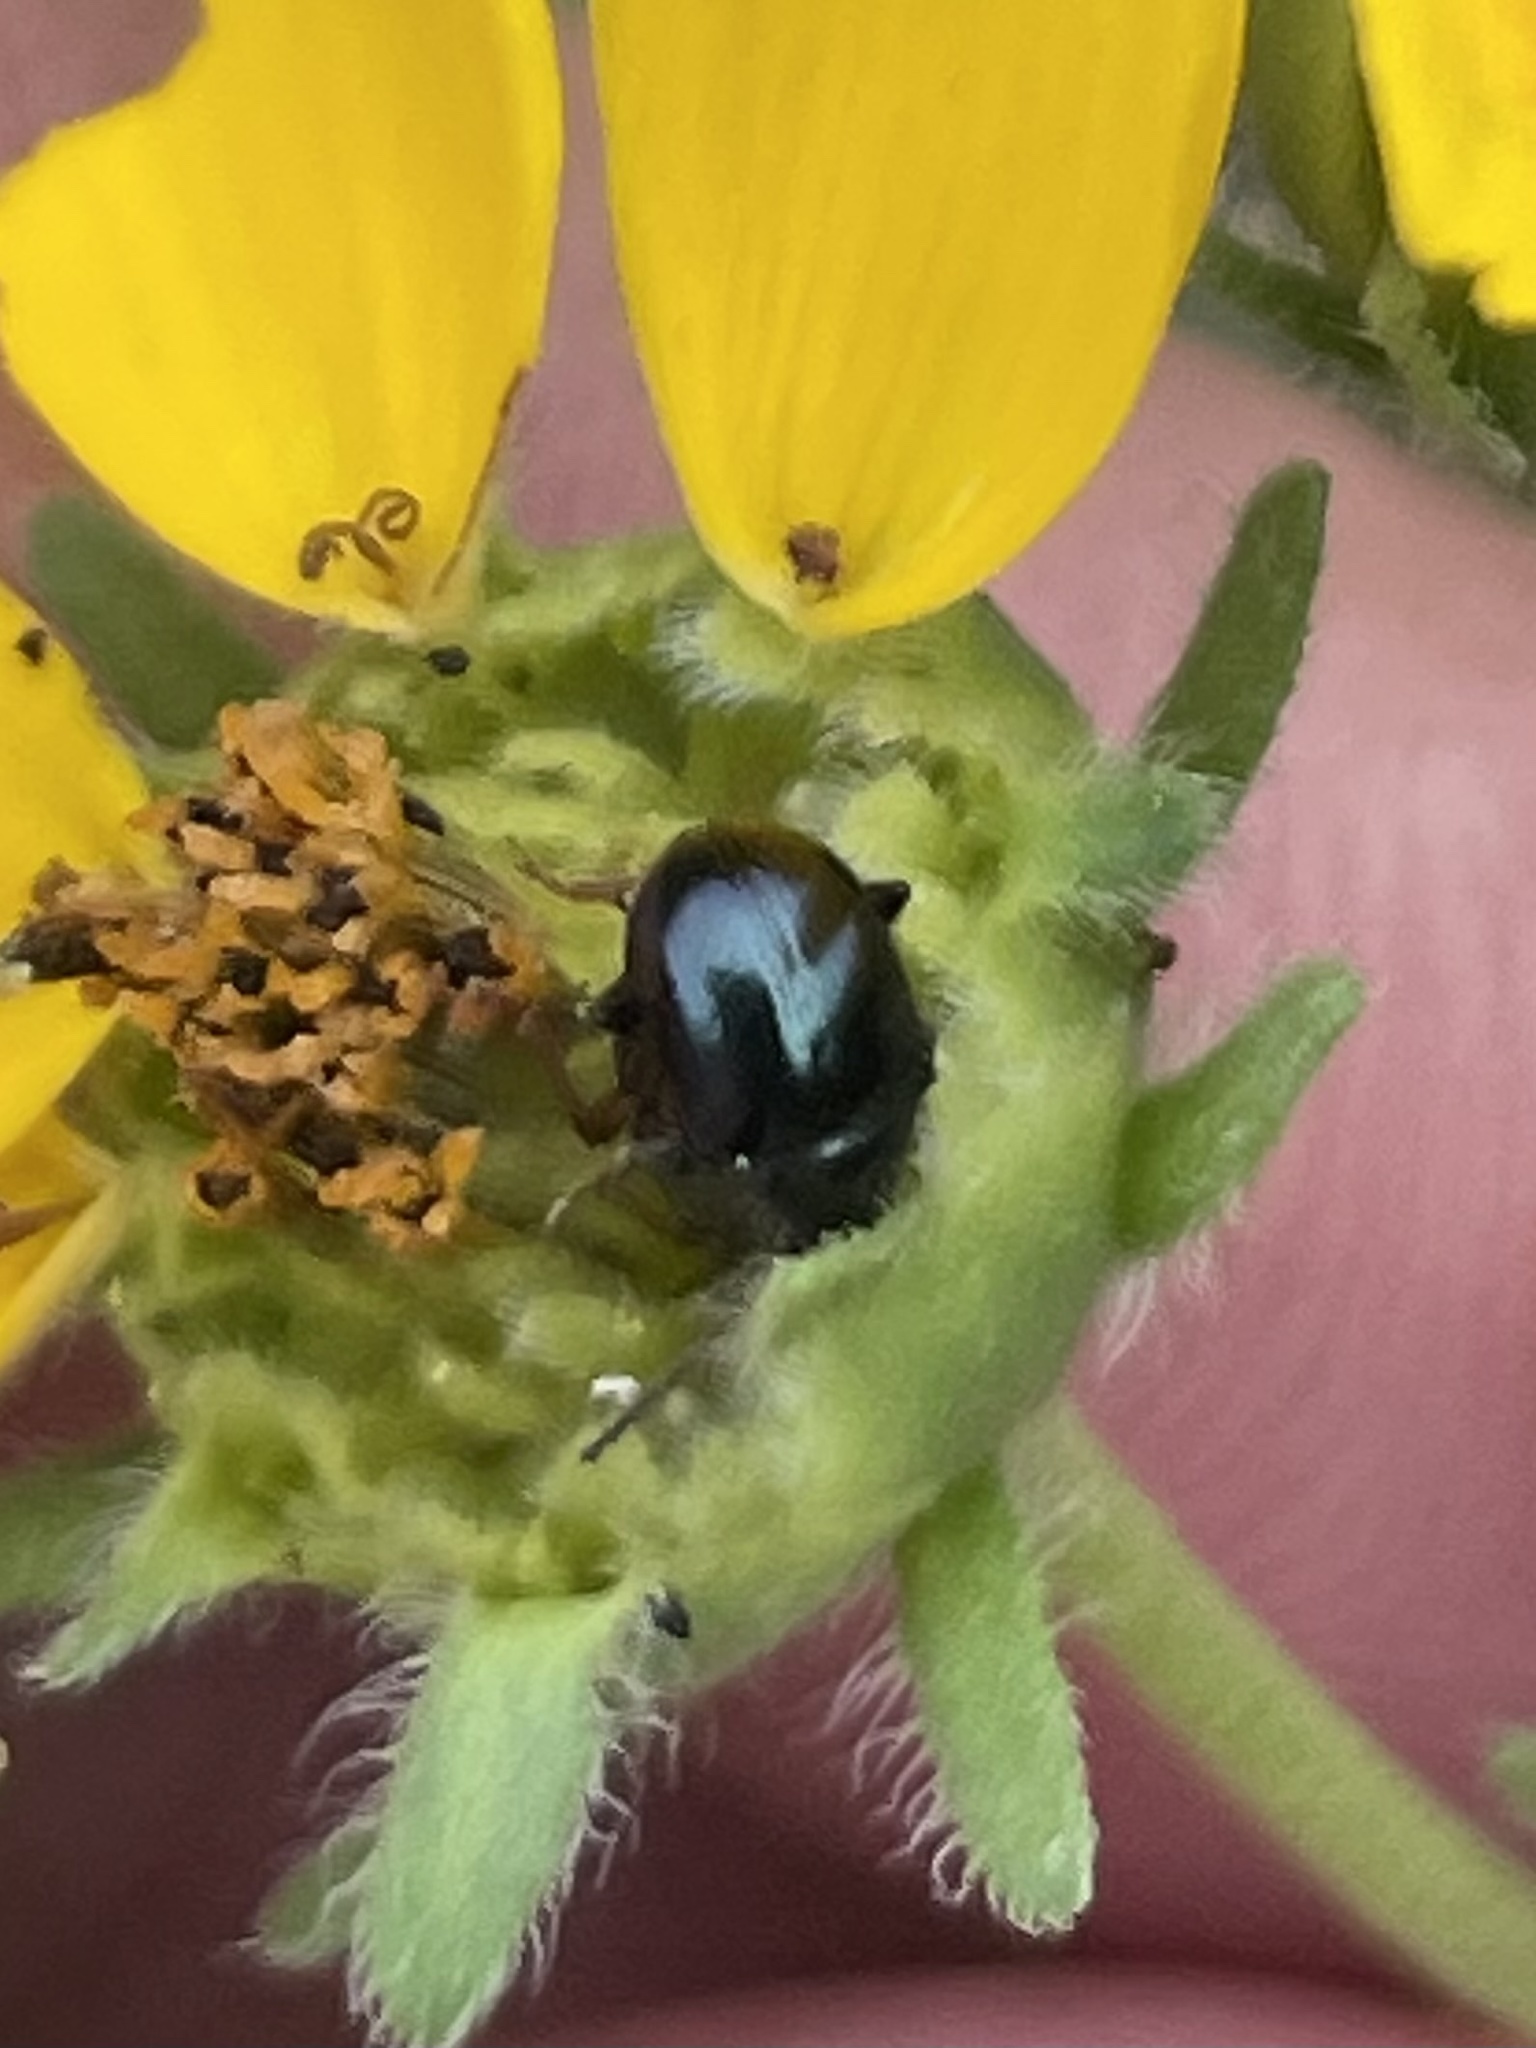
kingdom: Animalia
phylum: Arthropoda
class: Insecta
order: Coleoptera
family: Chrysomelidae
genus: Brachypnoea
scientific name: Brachypnoea lecontei
